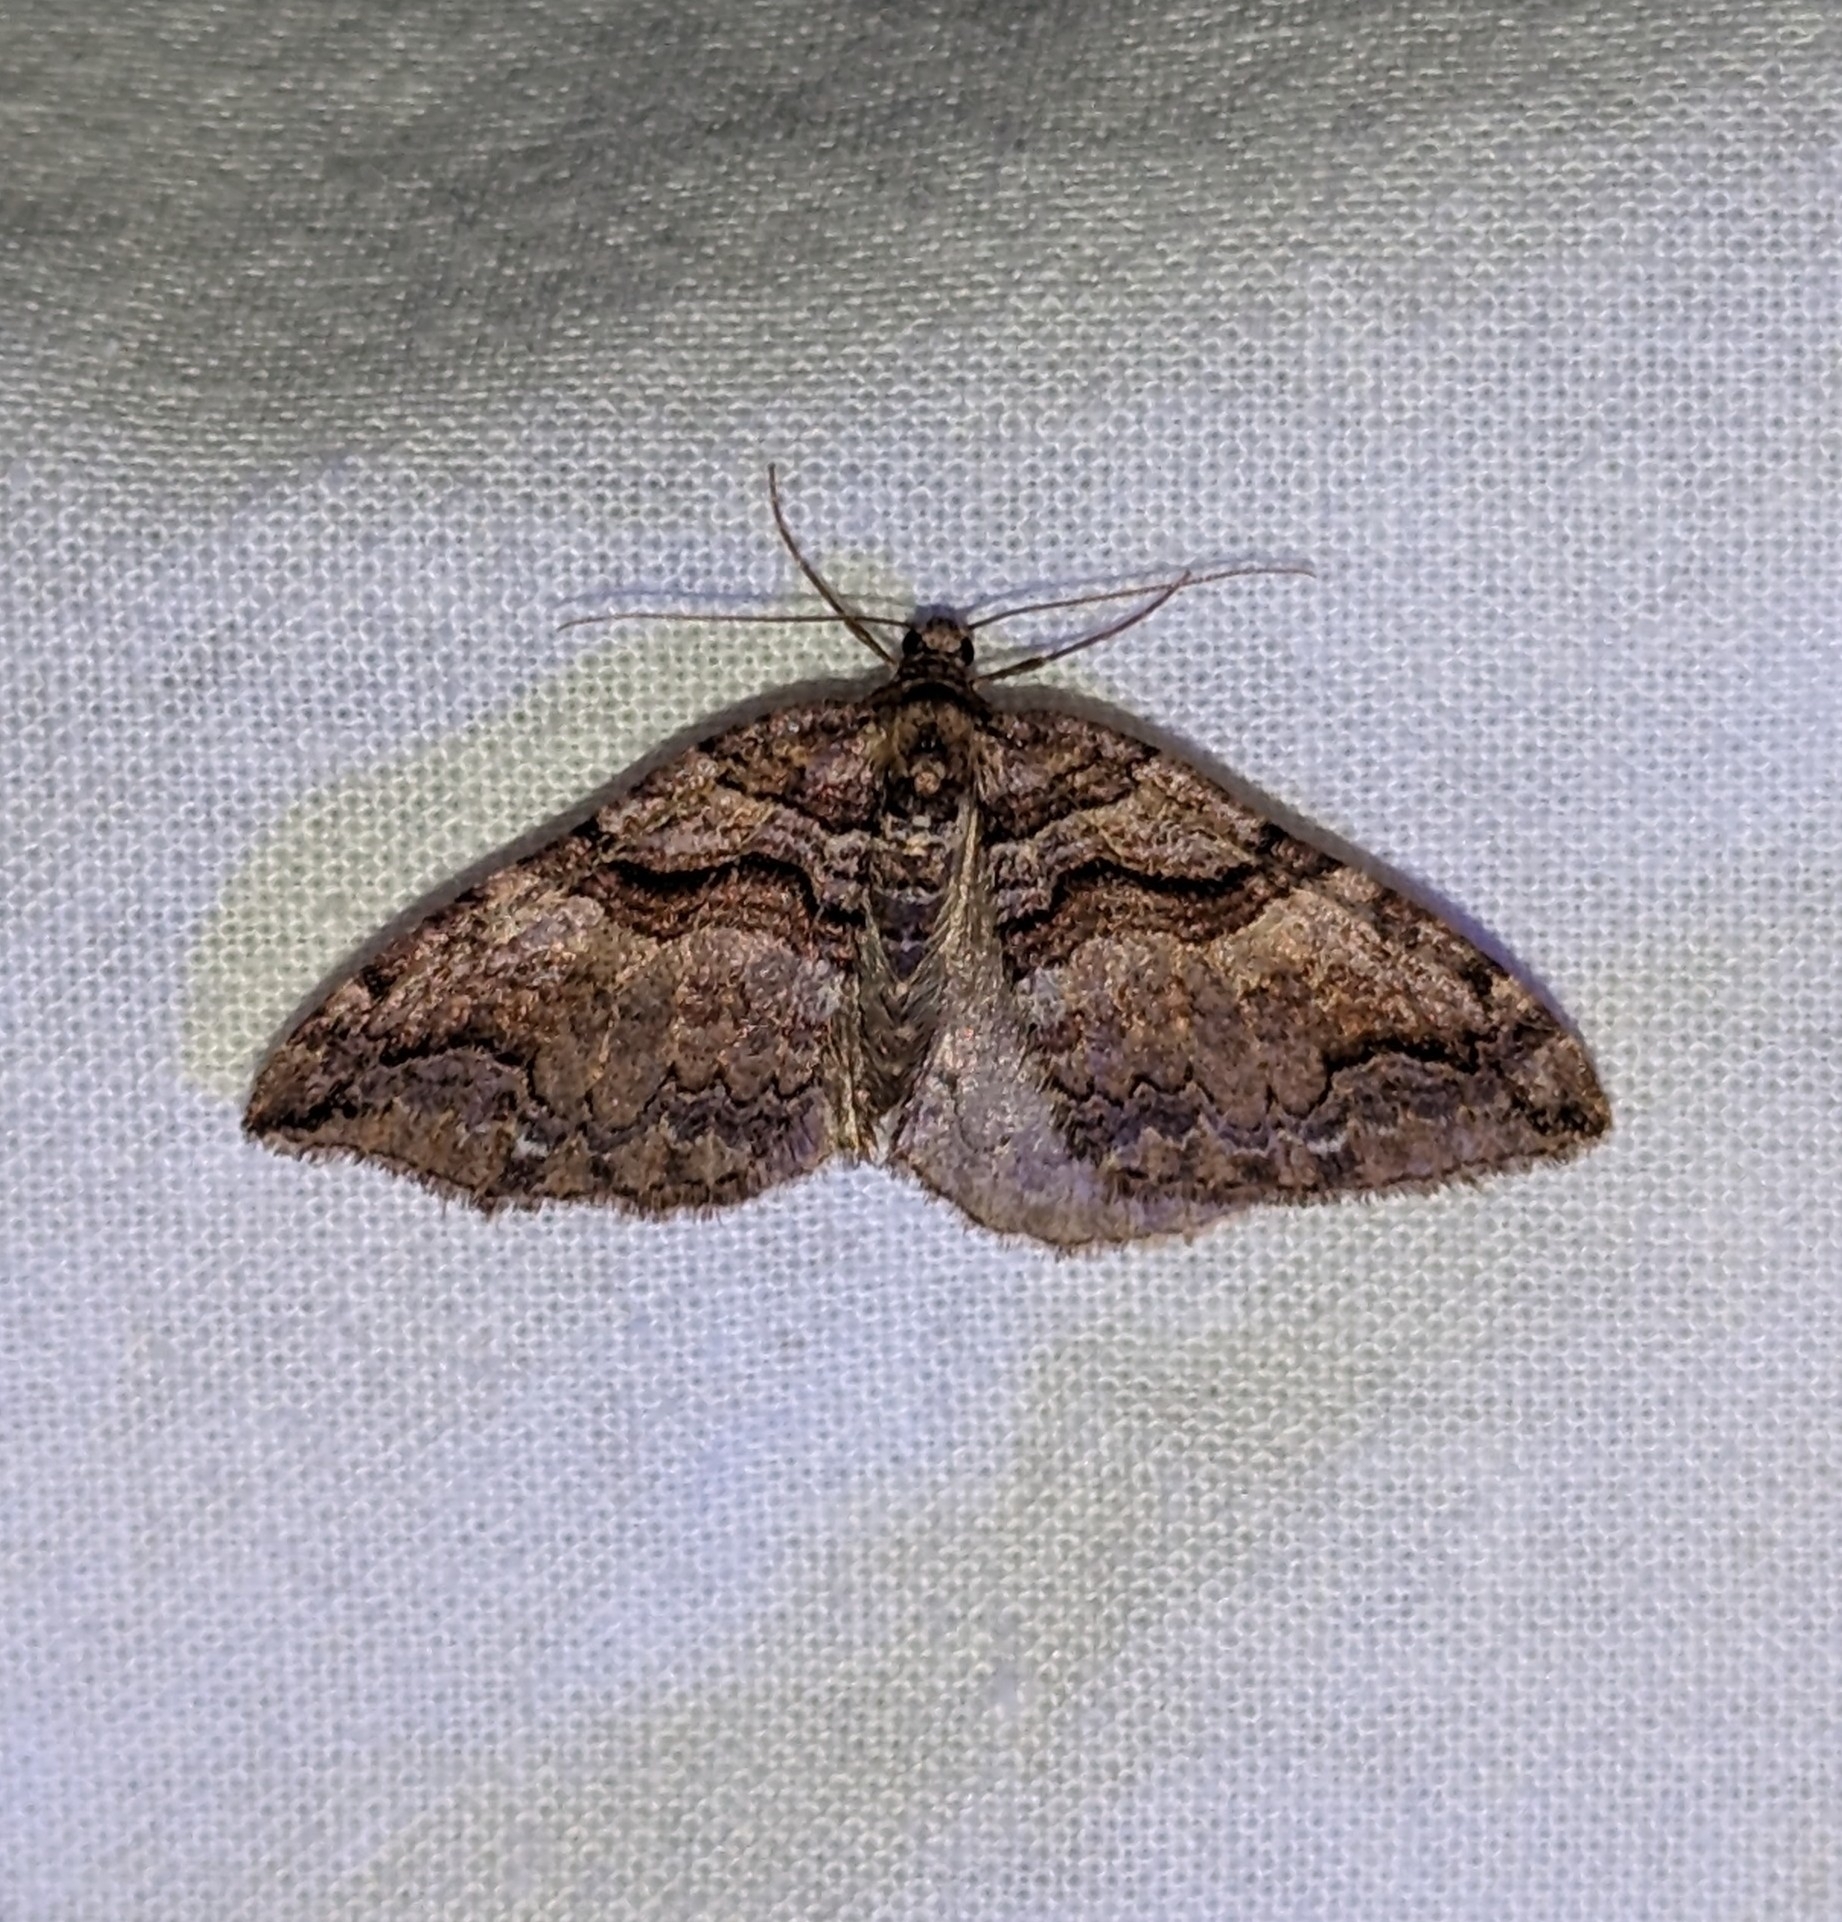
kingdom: Animalia
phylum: Arthropoda
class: Insecta
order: Lepidoptera
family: Geometridae
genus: Anticlea
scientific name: Anticlea vasiliata
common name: Variable carpet
